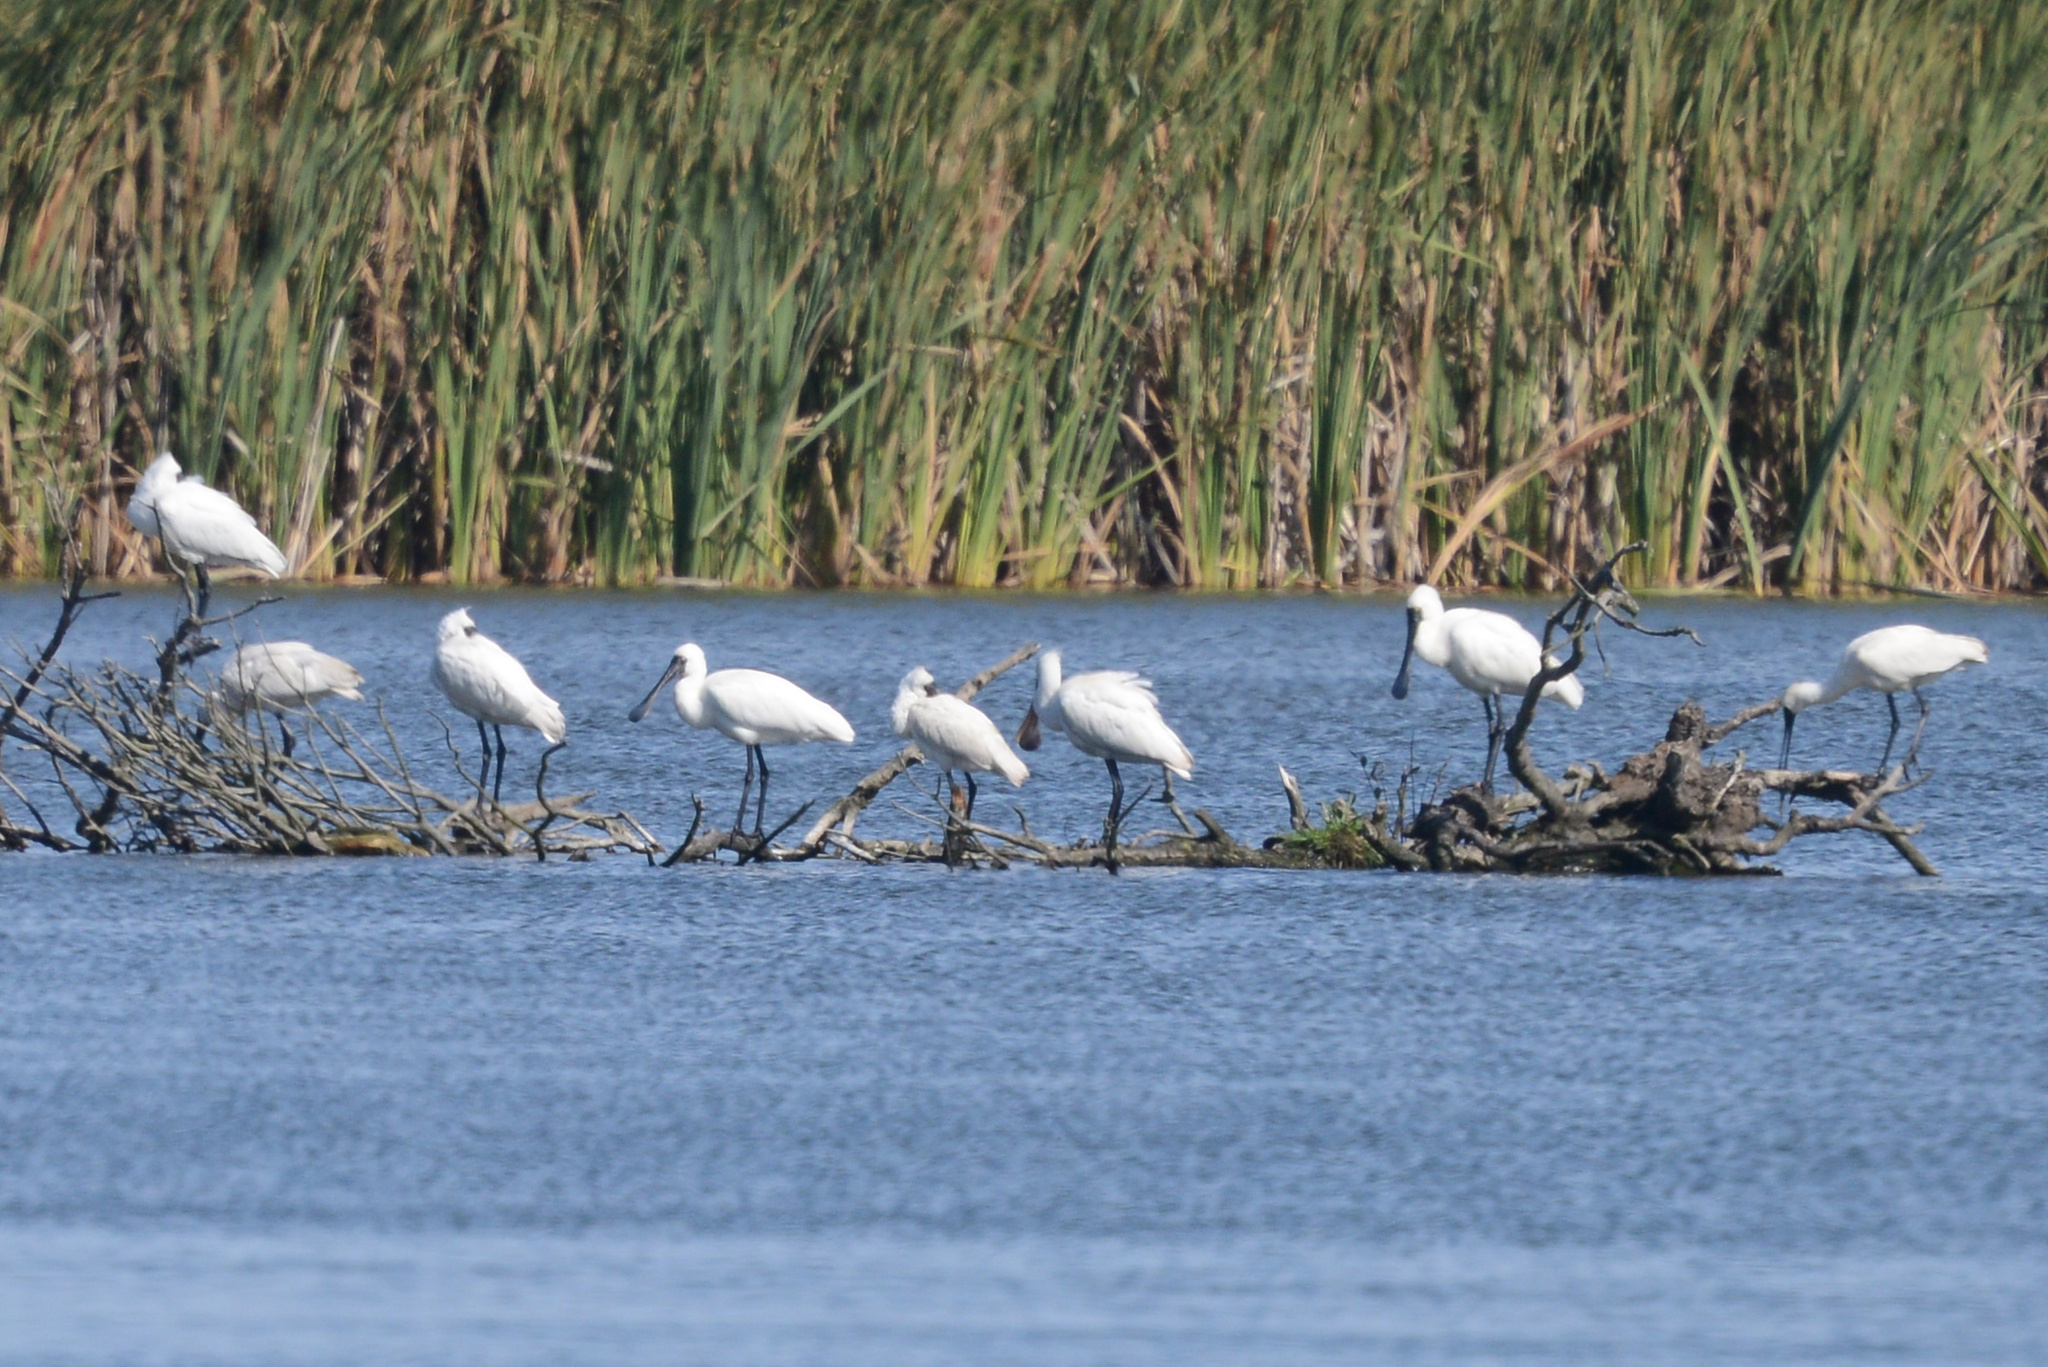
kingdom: Animalia
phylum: Chordata
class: Aves
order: Pelecaniformes
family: Threskiornithidae
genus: Platalea
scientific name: Platalea regia
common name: Royal spoonbill
